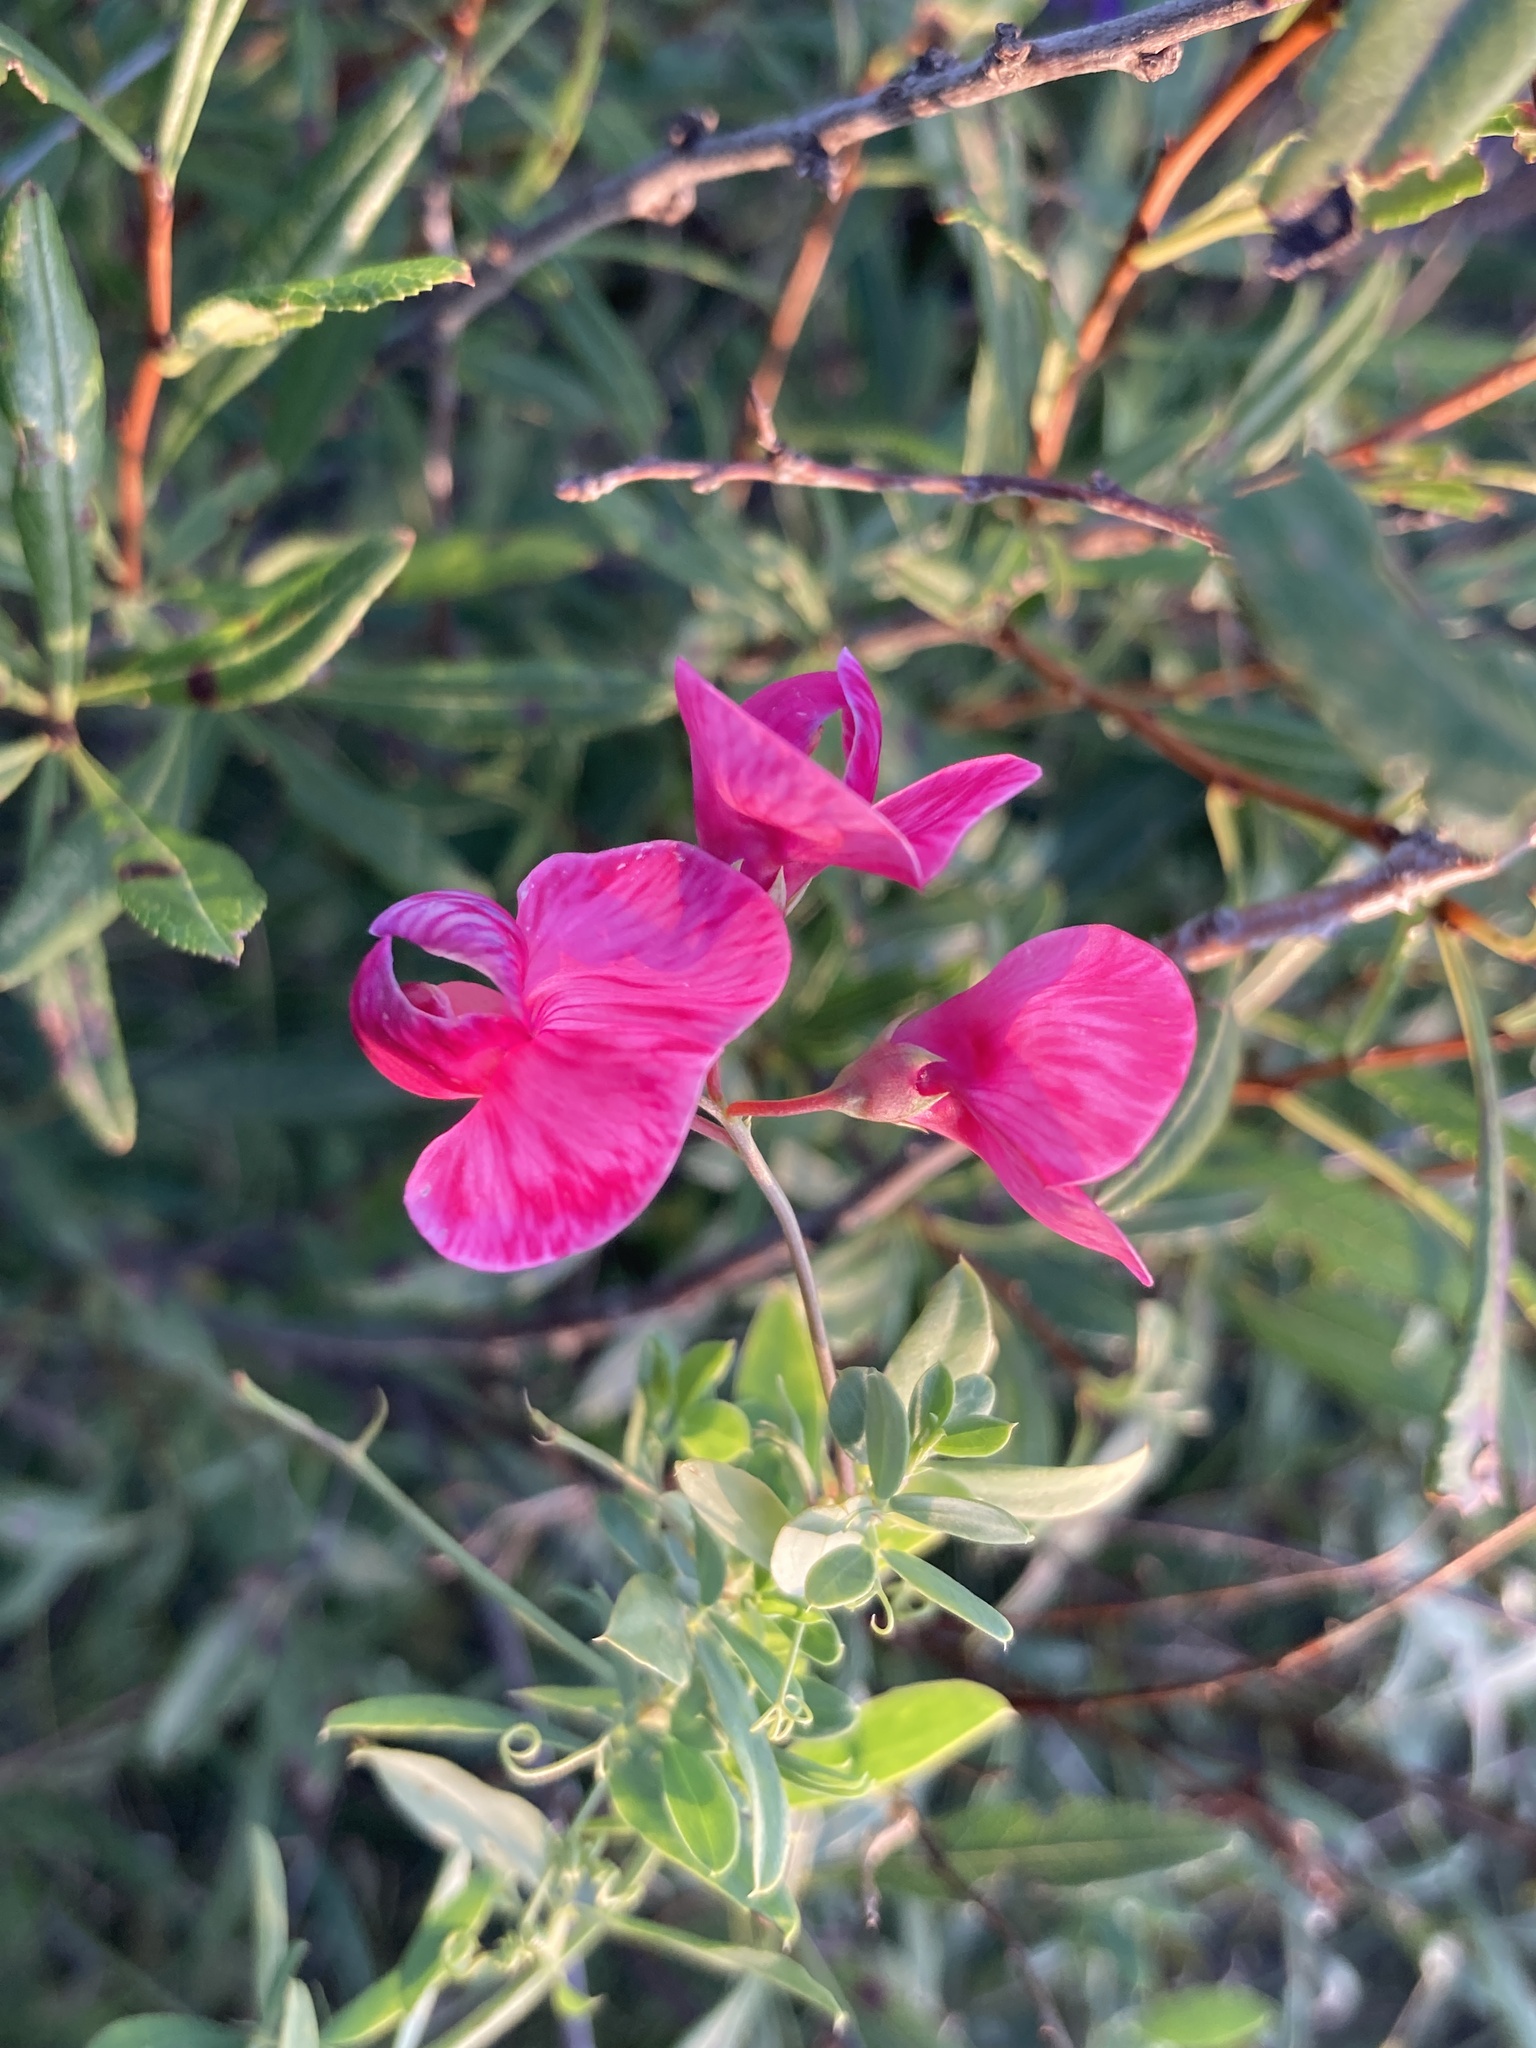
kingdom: Plantae
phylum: Tracheophyta
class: Magnoliopsida
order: Fabales
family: Fabaceae
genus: Lathyrus
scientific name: Lathyrus tuberosus
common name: Tuberous pea
